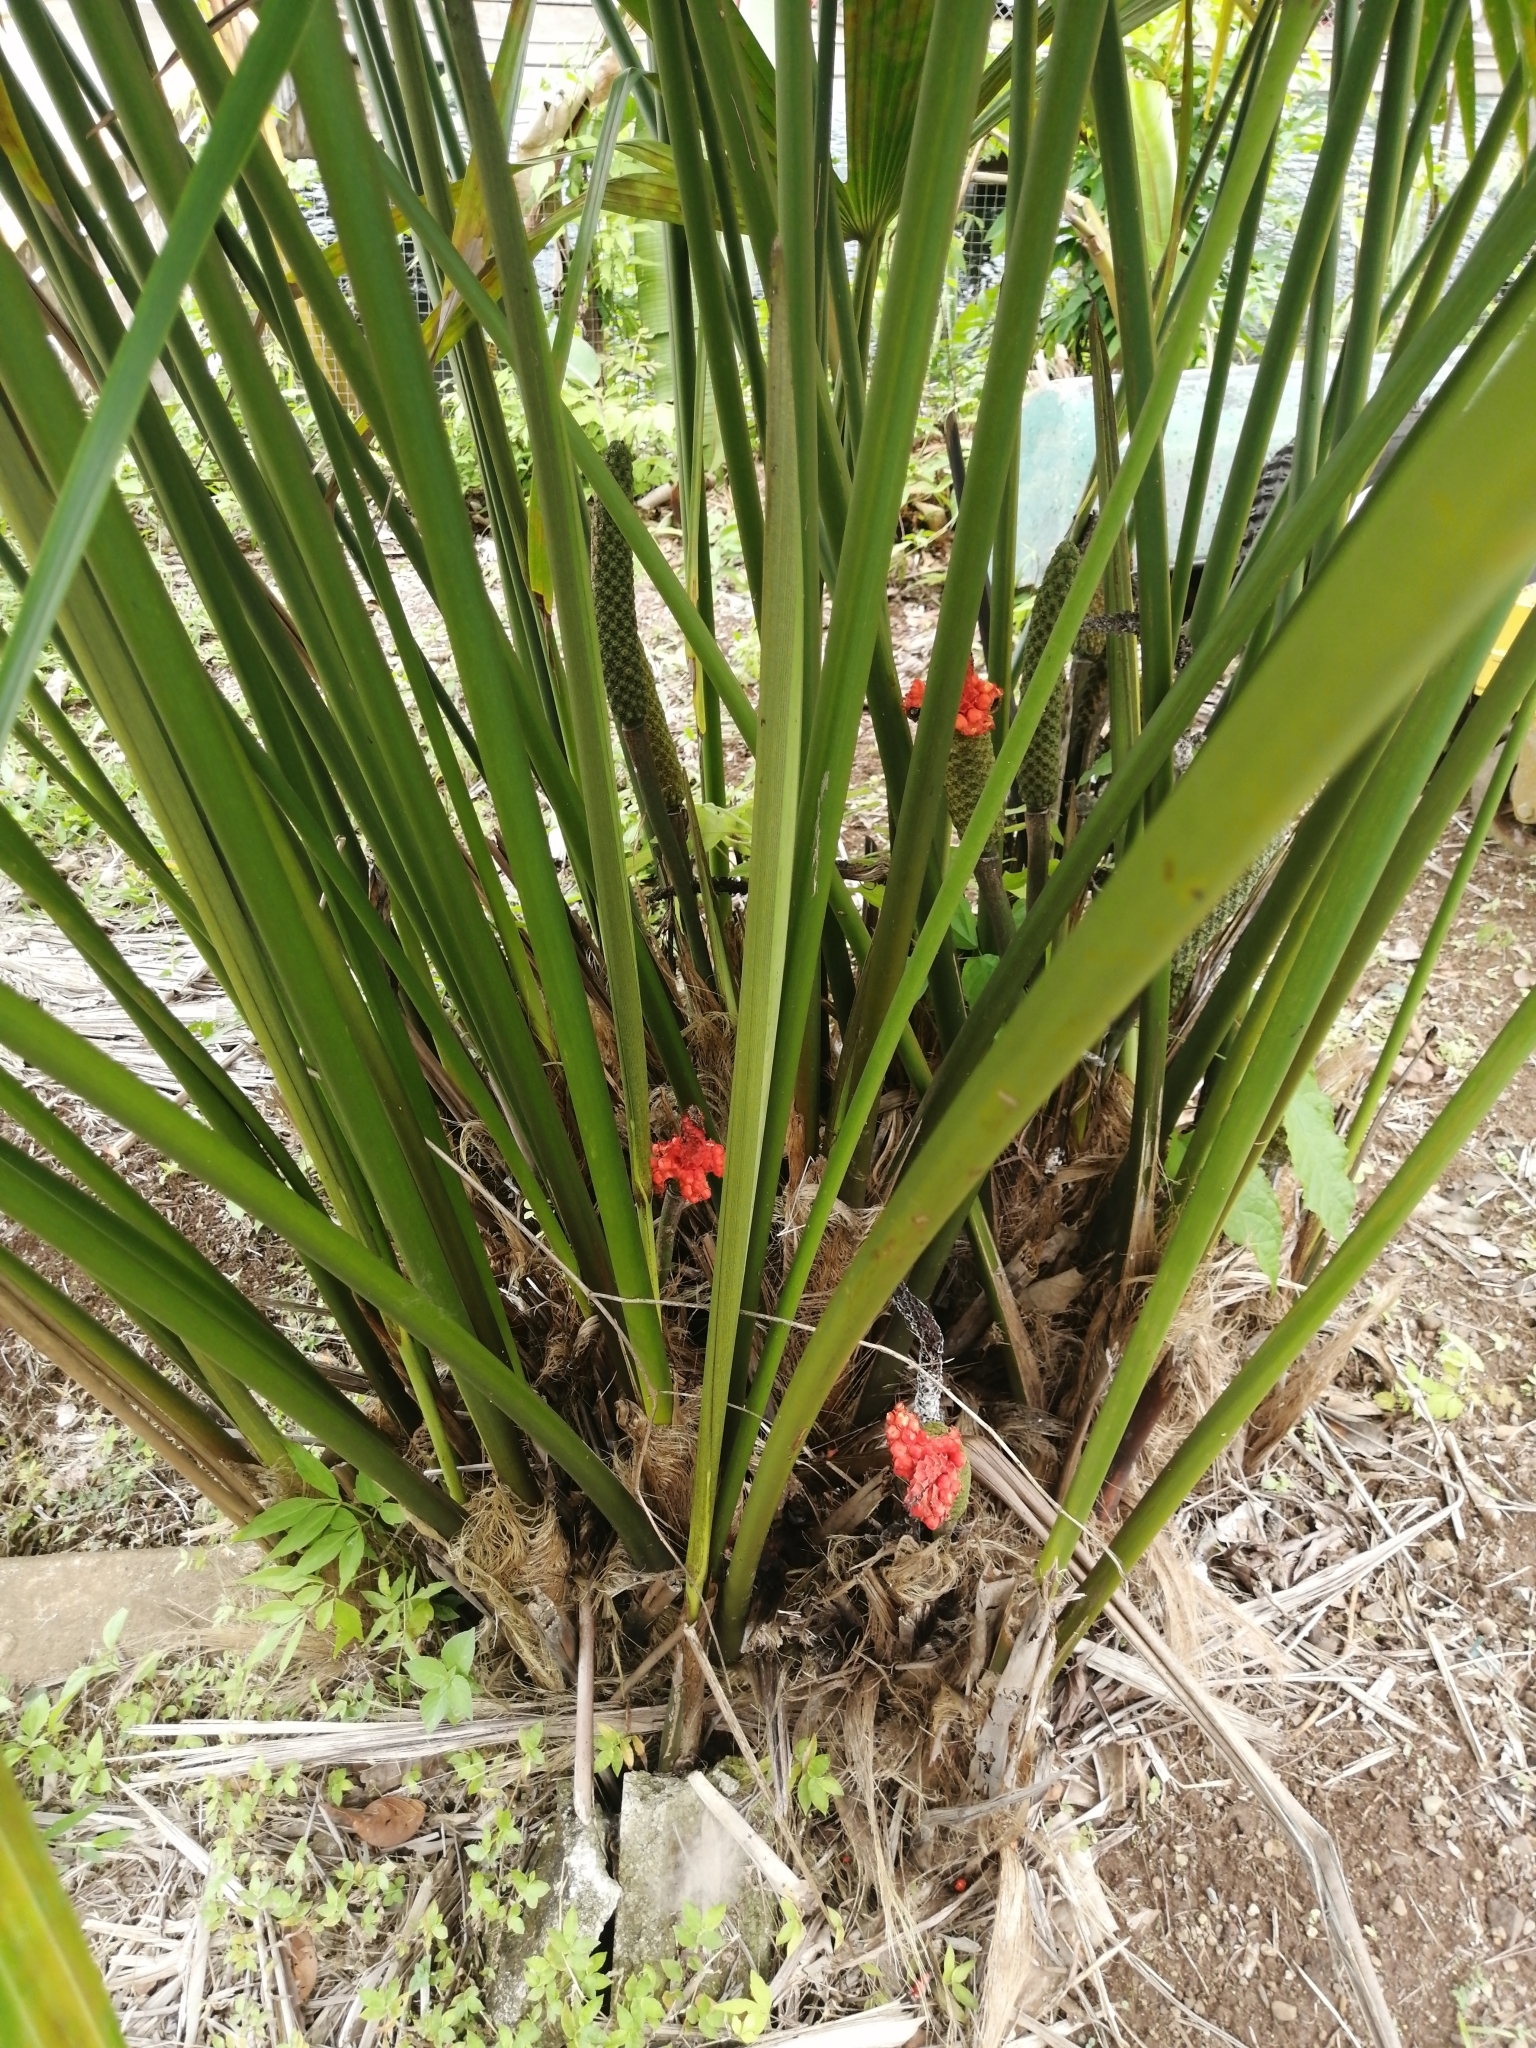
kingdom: Plantae
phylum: Tracheophyta
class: Liliopsida
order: Pandanales
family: Cyclanthaceae
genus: Carludovica
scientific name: Carludovica palmata
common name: Panama hat plant
